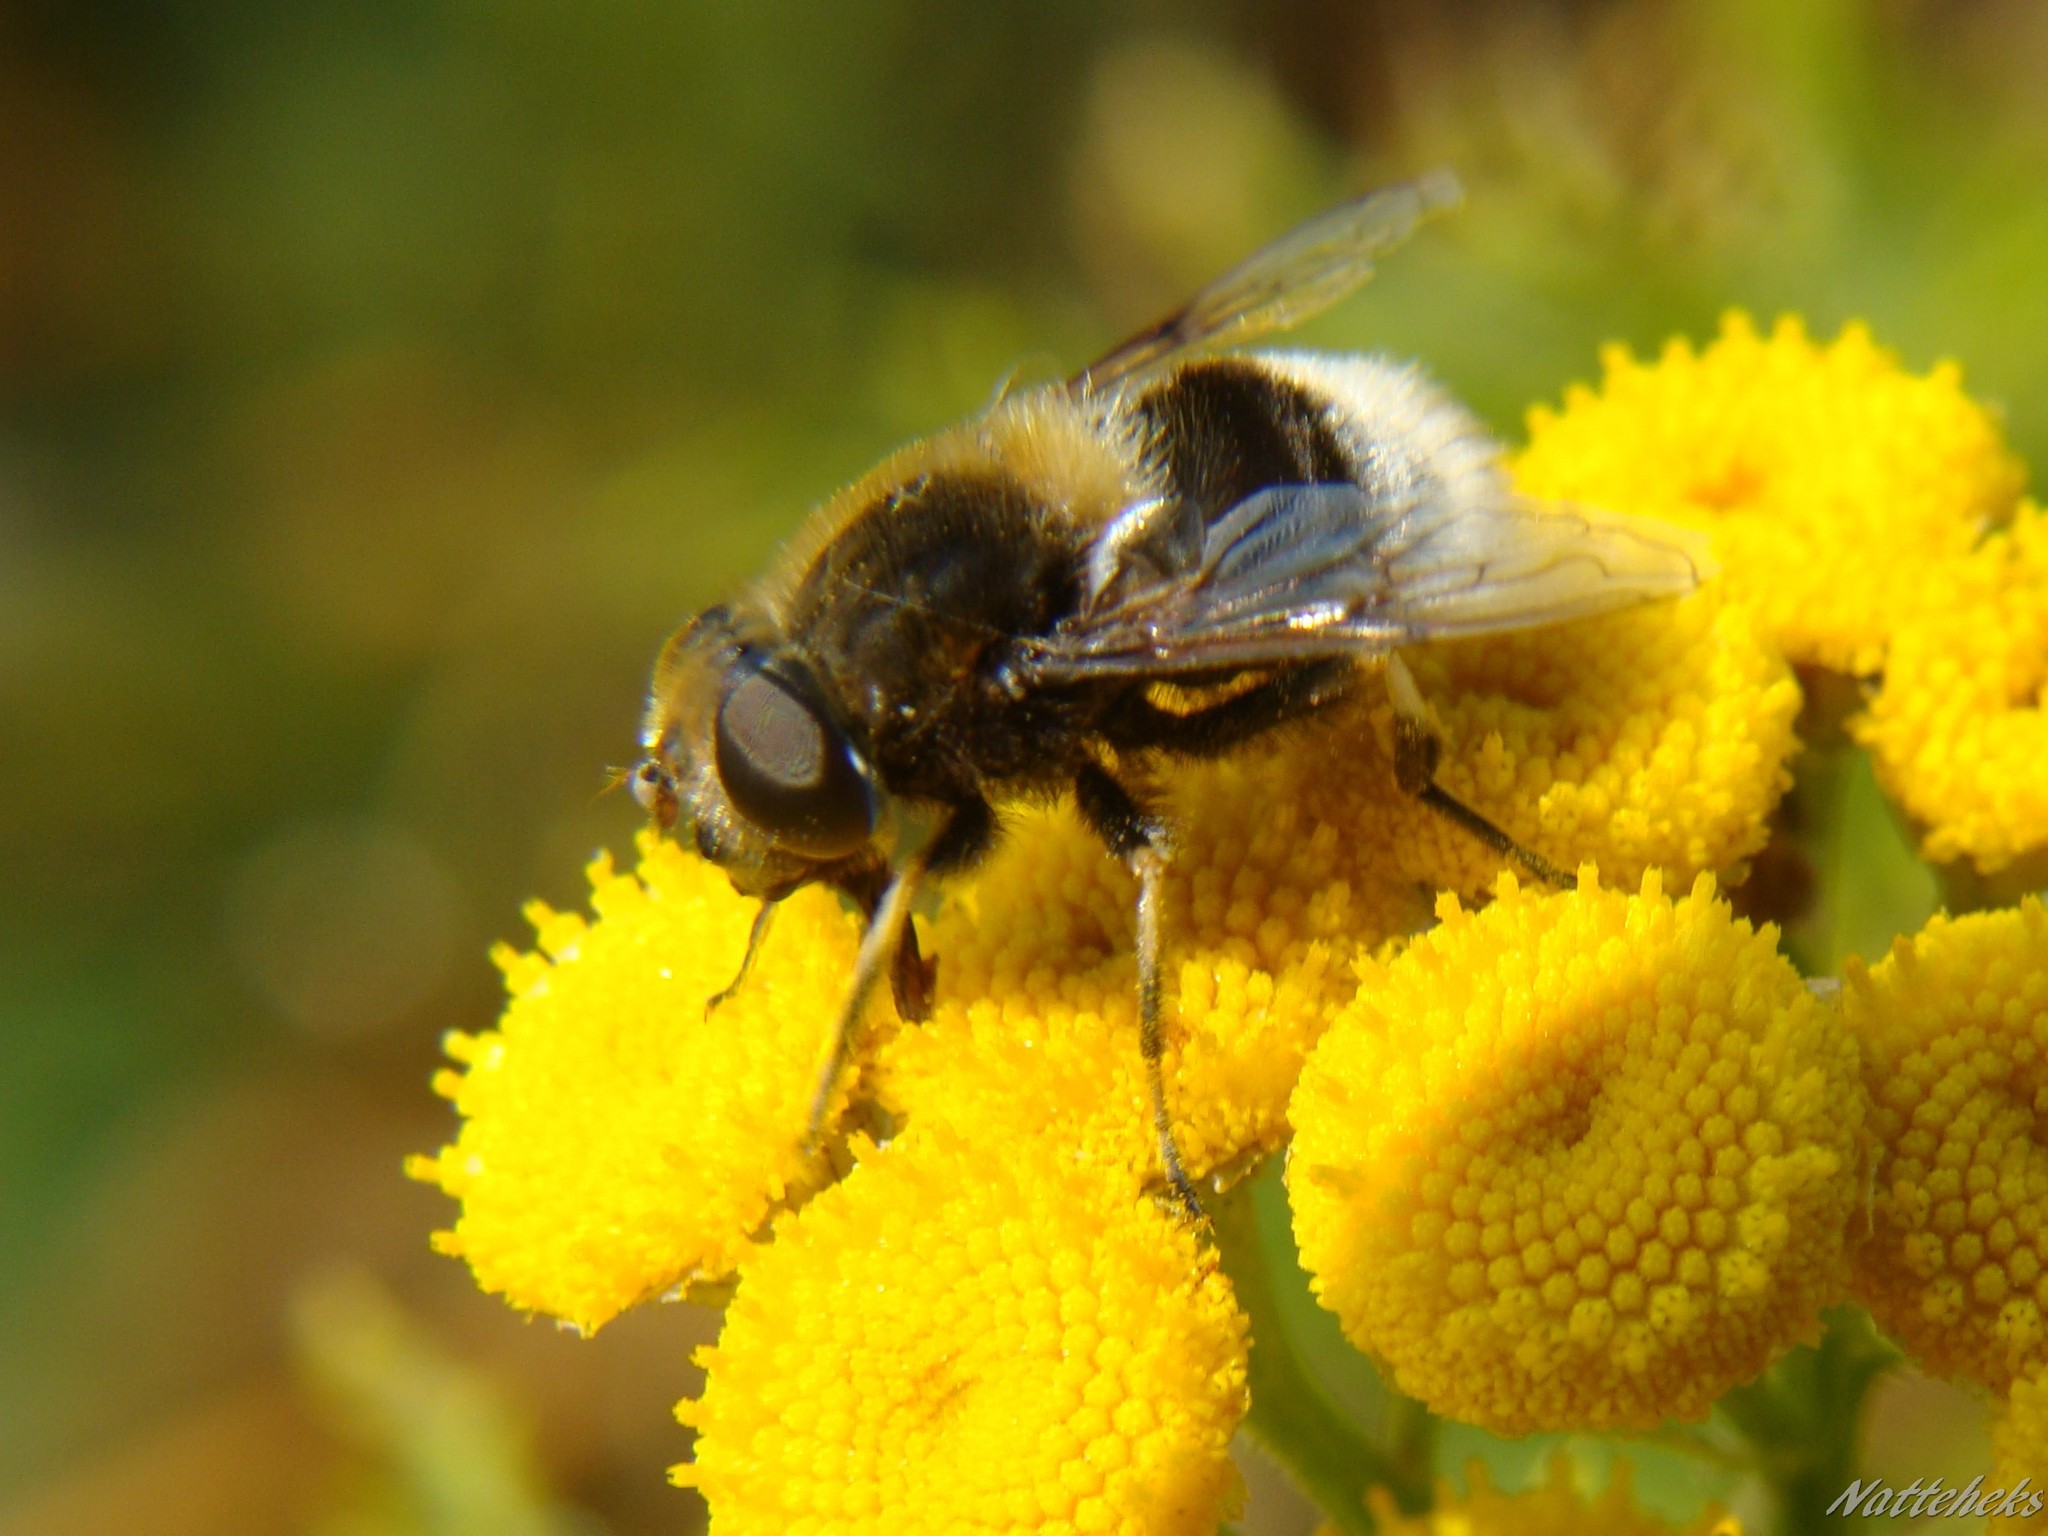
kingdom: Animalia
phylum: Arthropoda
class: Insecta
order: Diptera
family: Syrphidae
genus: Eristalis
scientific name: Eristalis intricaria
